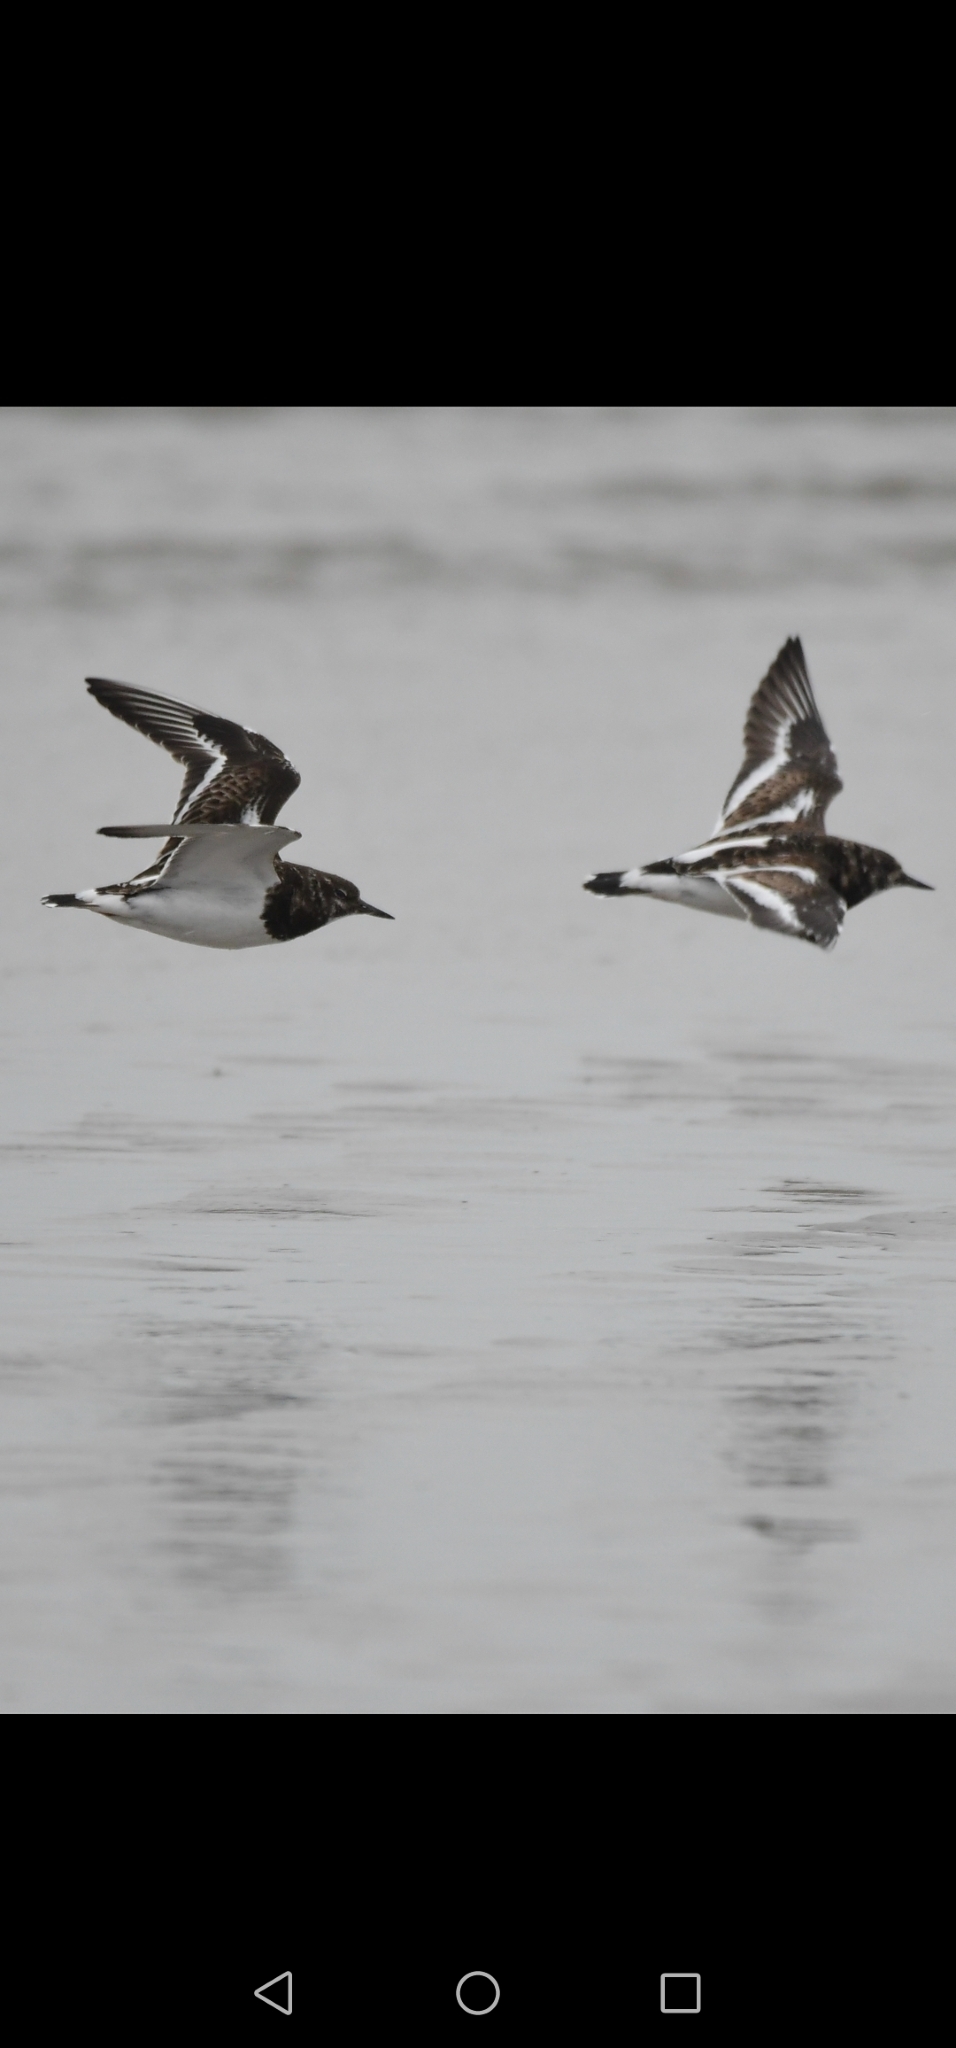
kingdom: Animalia
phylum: Chordata
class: Aves
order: Charadriiformes
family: Scolopacidae
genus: Arenaria
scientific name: Arenaria interpres
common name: Ruddy turnstone
